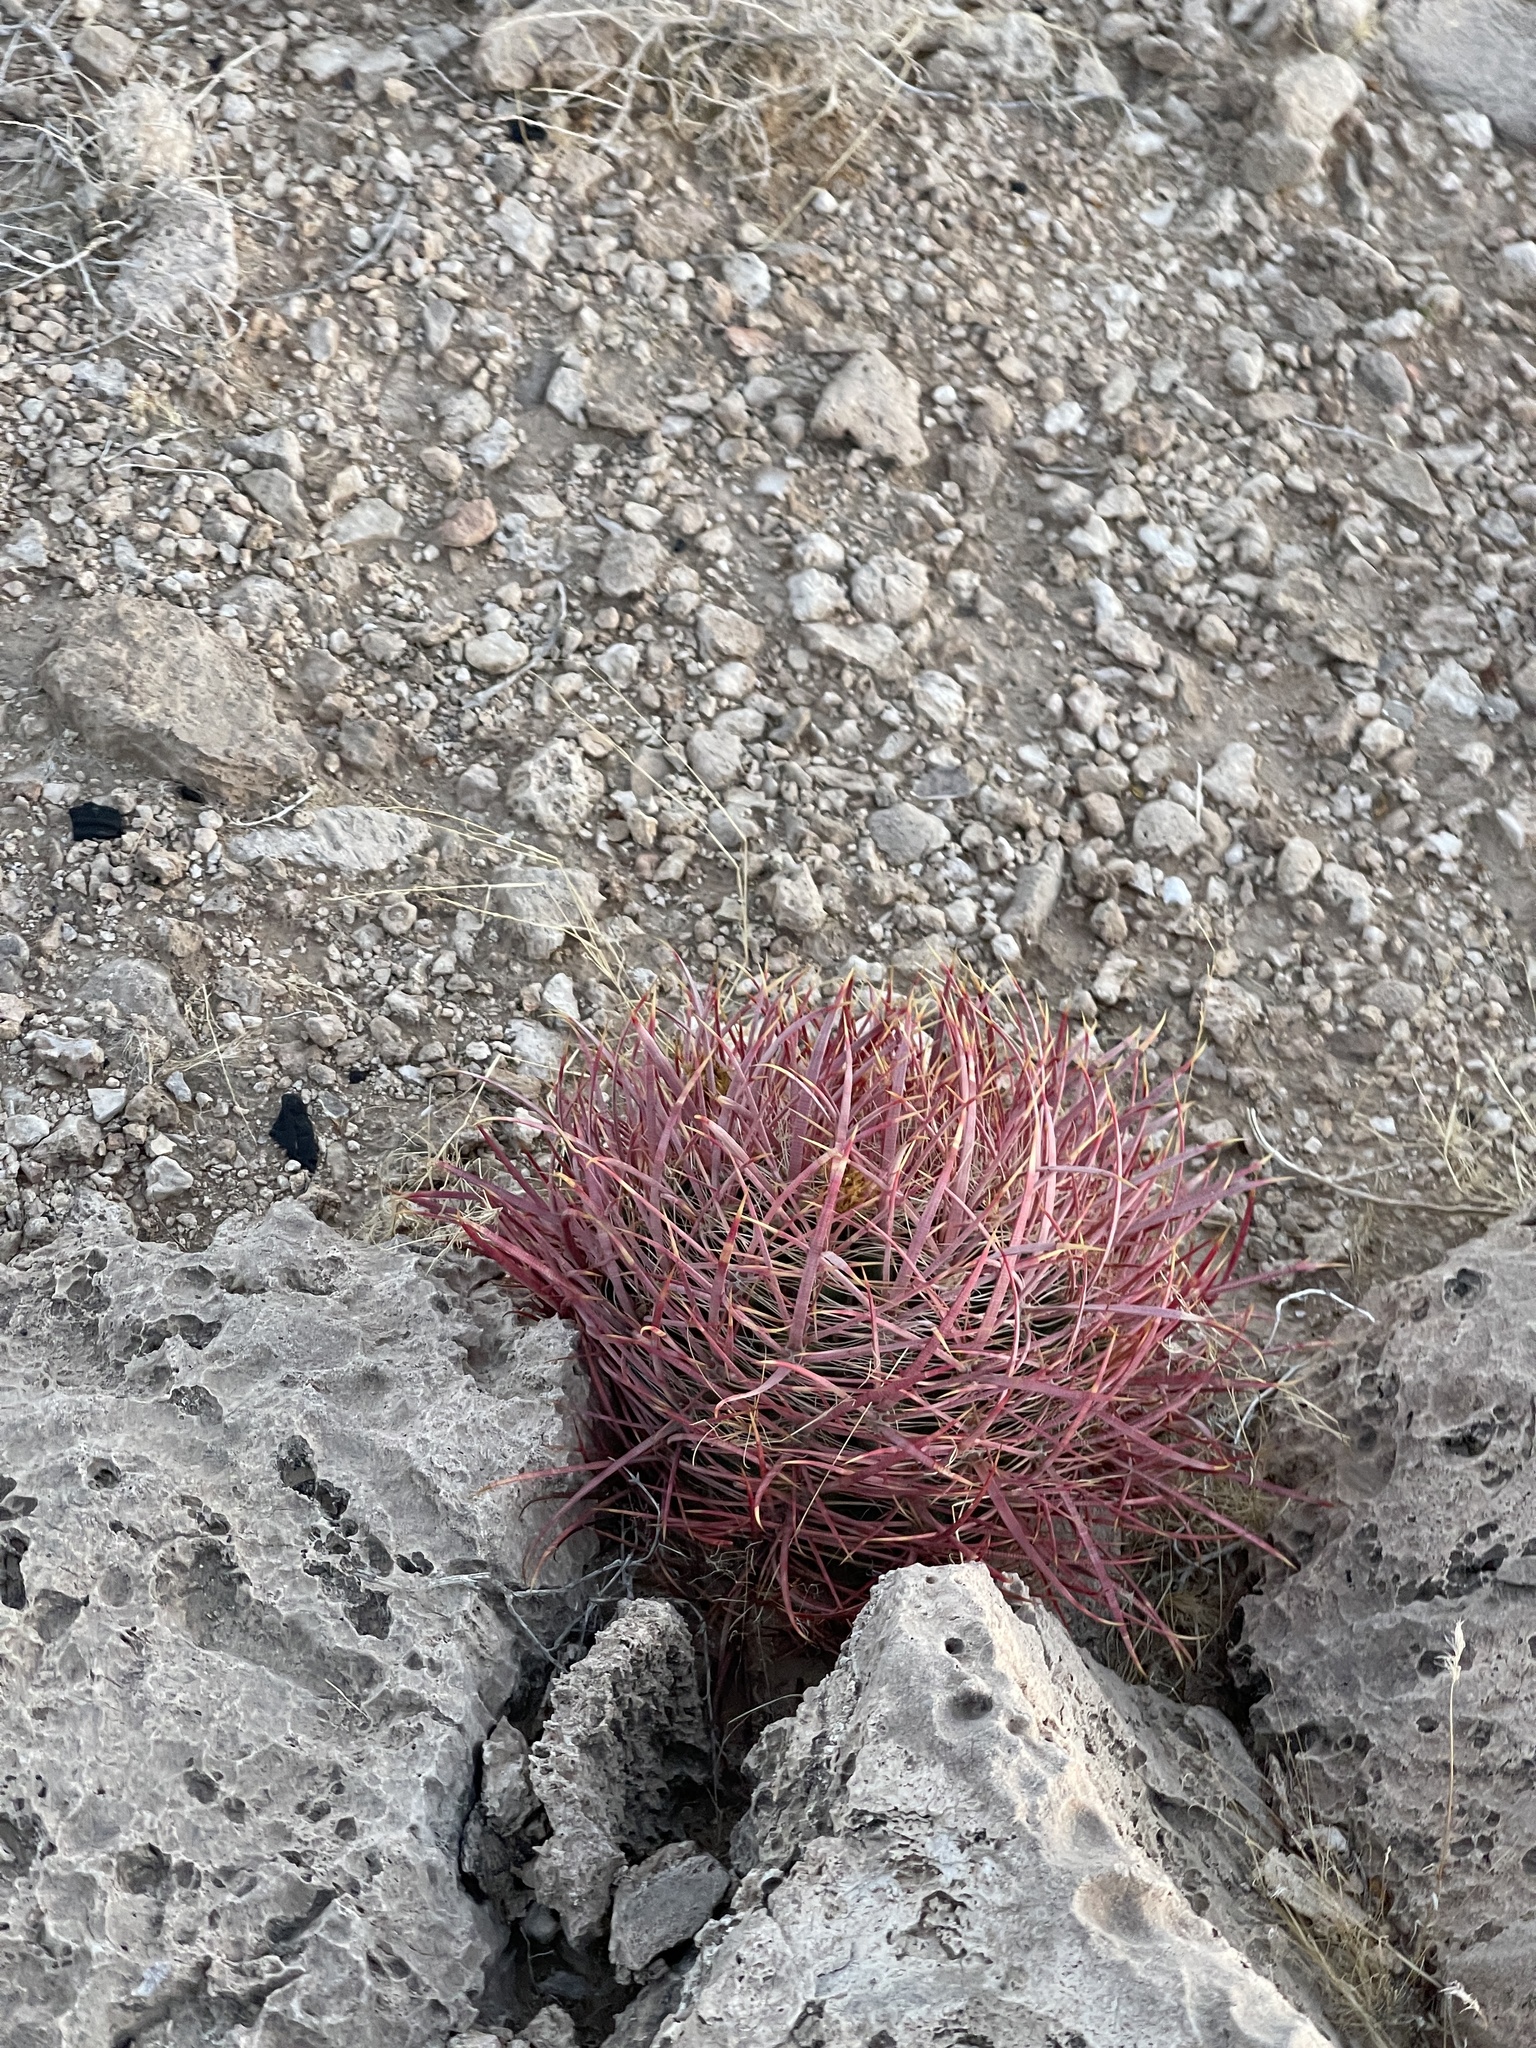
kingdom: Plantae
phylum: Tracheophyta
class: Magnoliopsida
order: Caryophyllales
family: Cactaceae
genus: Ferocactus
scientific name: Ferocactus cylindraceus
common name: California barrel cactus
